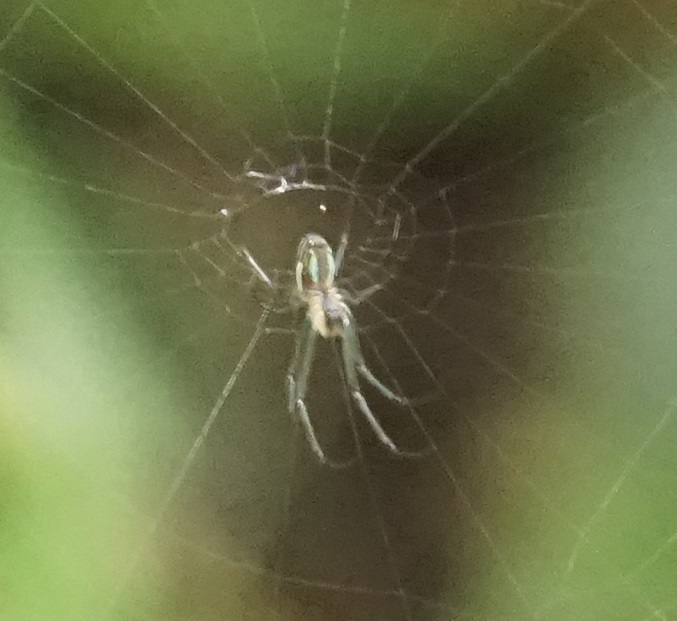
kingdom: Animalia
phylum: Arthropoda
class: Arachnida
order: Araneae
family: Tetragnathidae
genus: Leucauge
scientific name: Leucauge celebesiana
